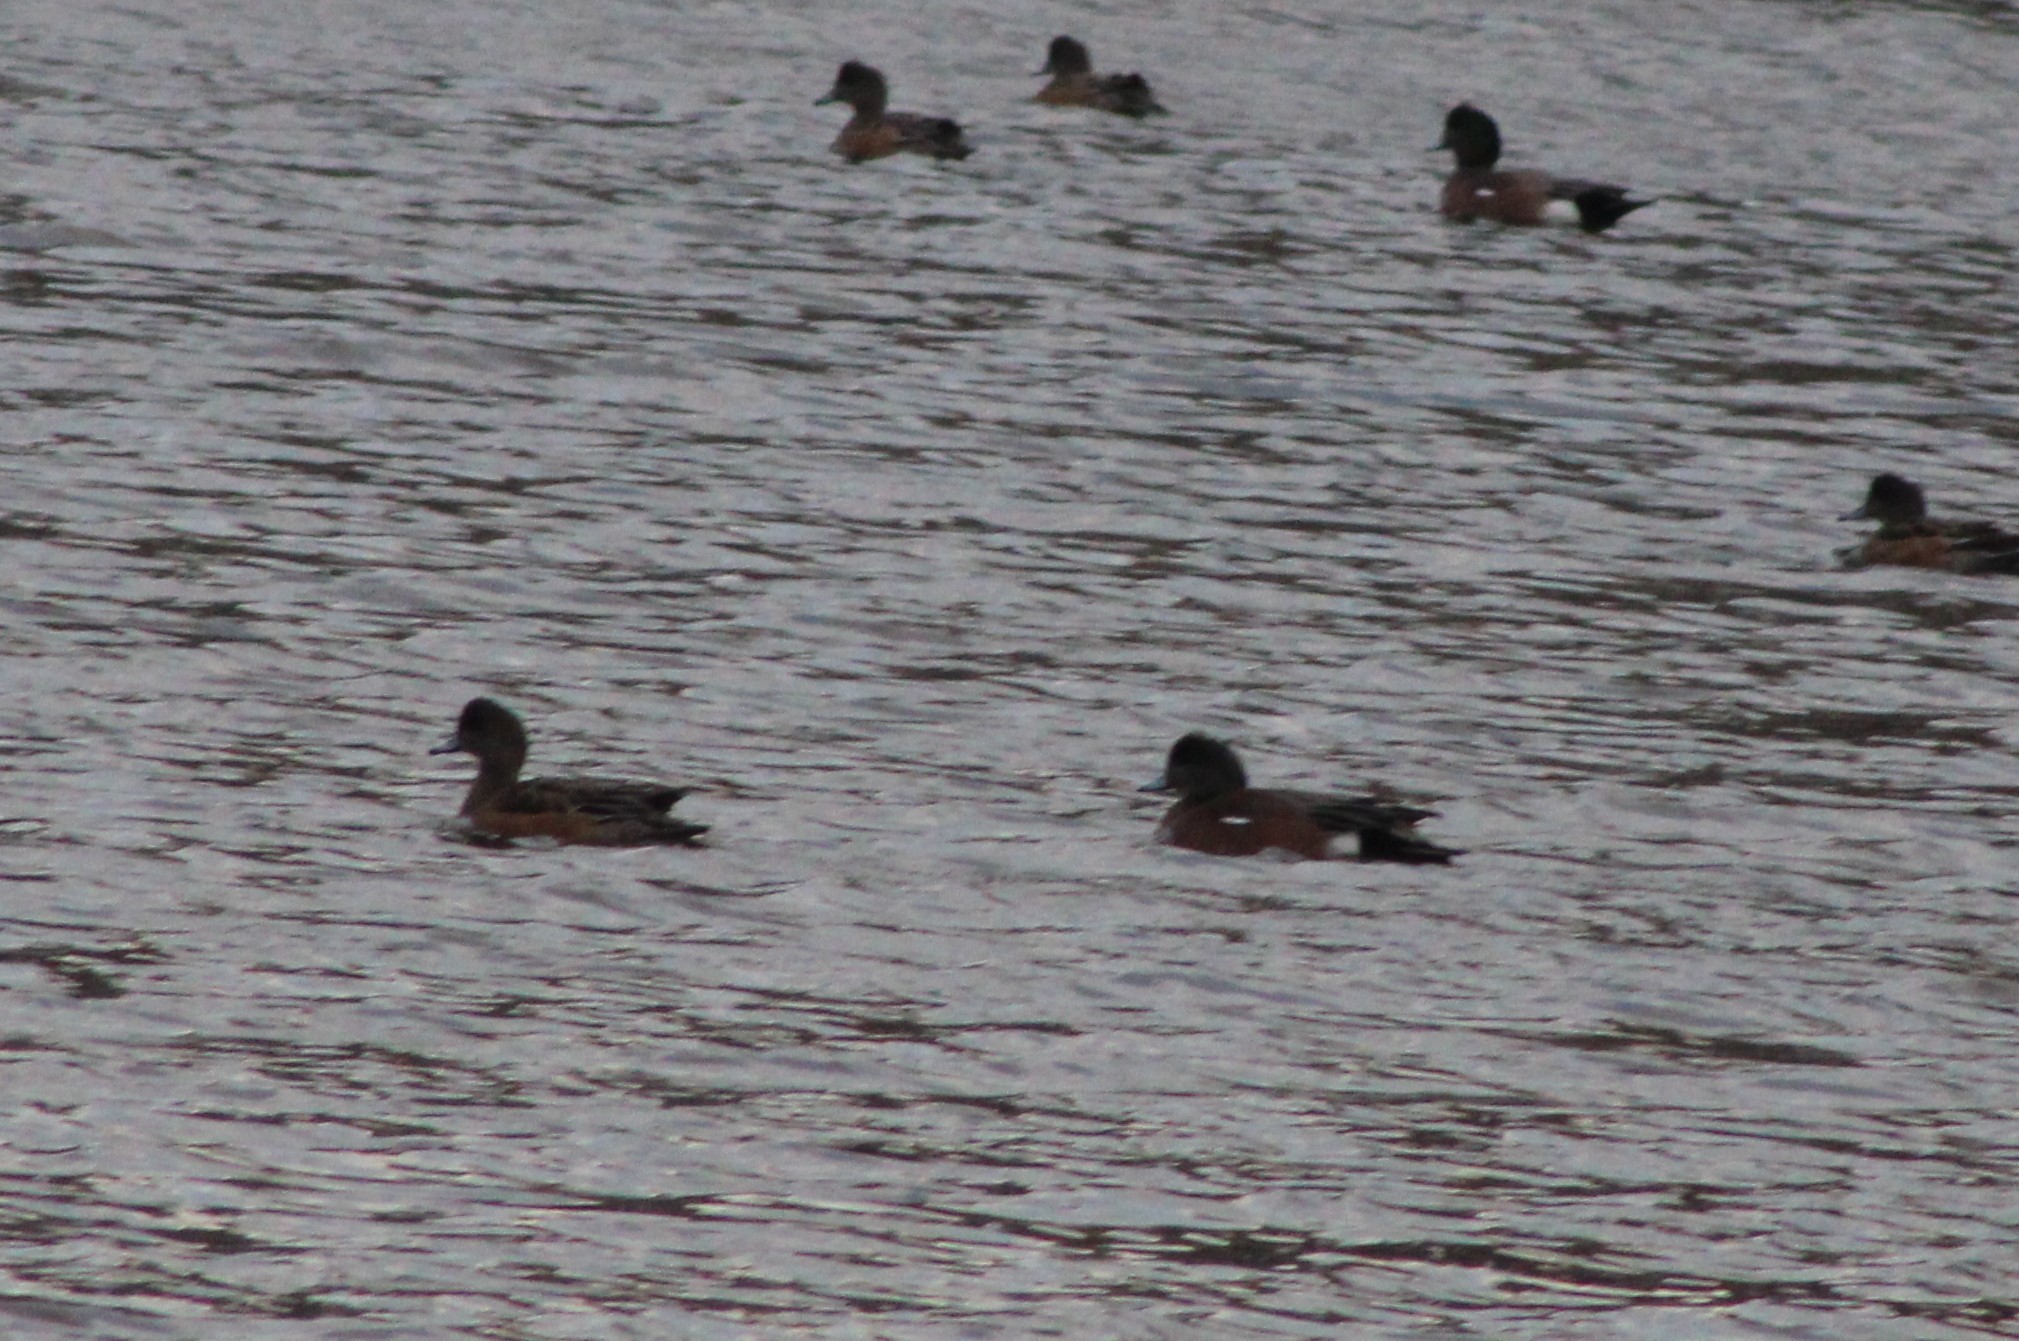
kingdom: Animalia
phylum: Chordata
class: Aves
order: Anseriformes
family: Anatidae
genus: Mareca
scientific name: Mareca americana
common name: American wigeon
